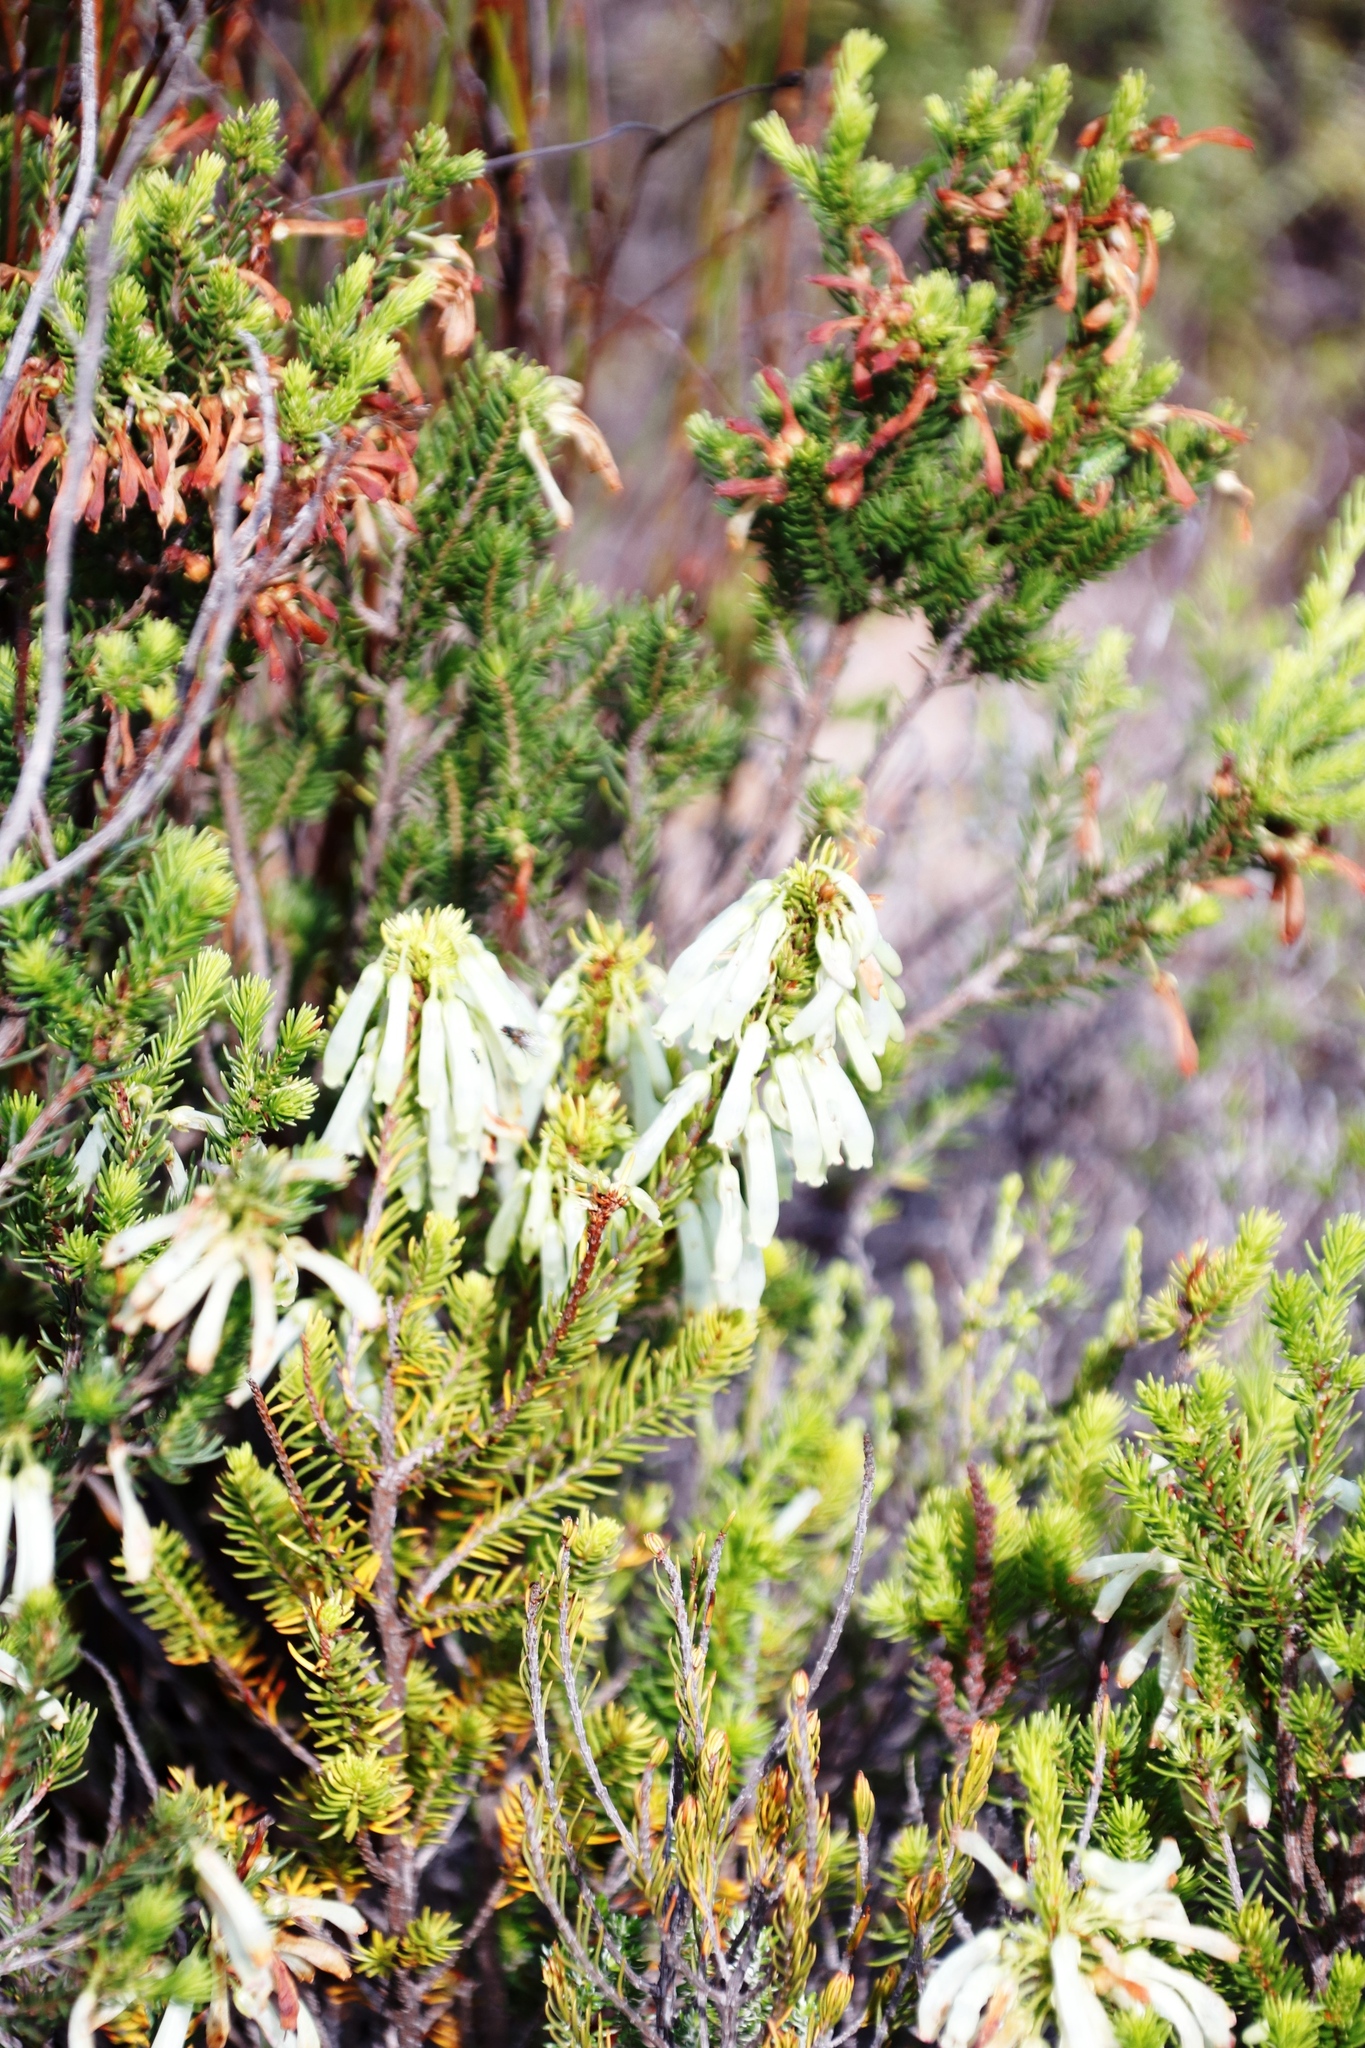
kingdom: Plantae
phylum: Tracheophyta
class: Magnoliopsida
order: Ericales
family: Ericaceae
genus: Erica
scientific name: Erica mammosa
